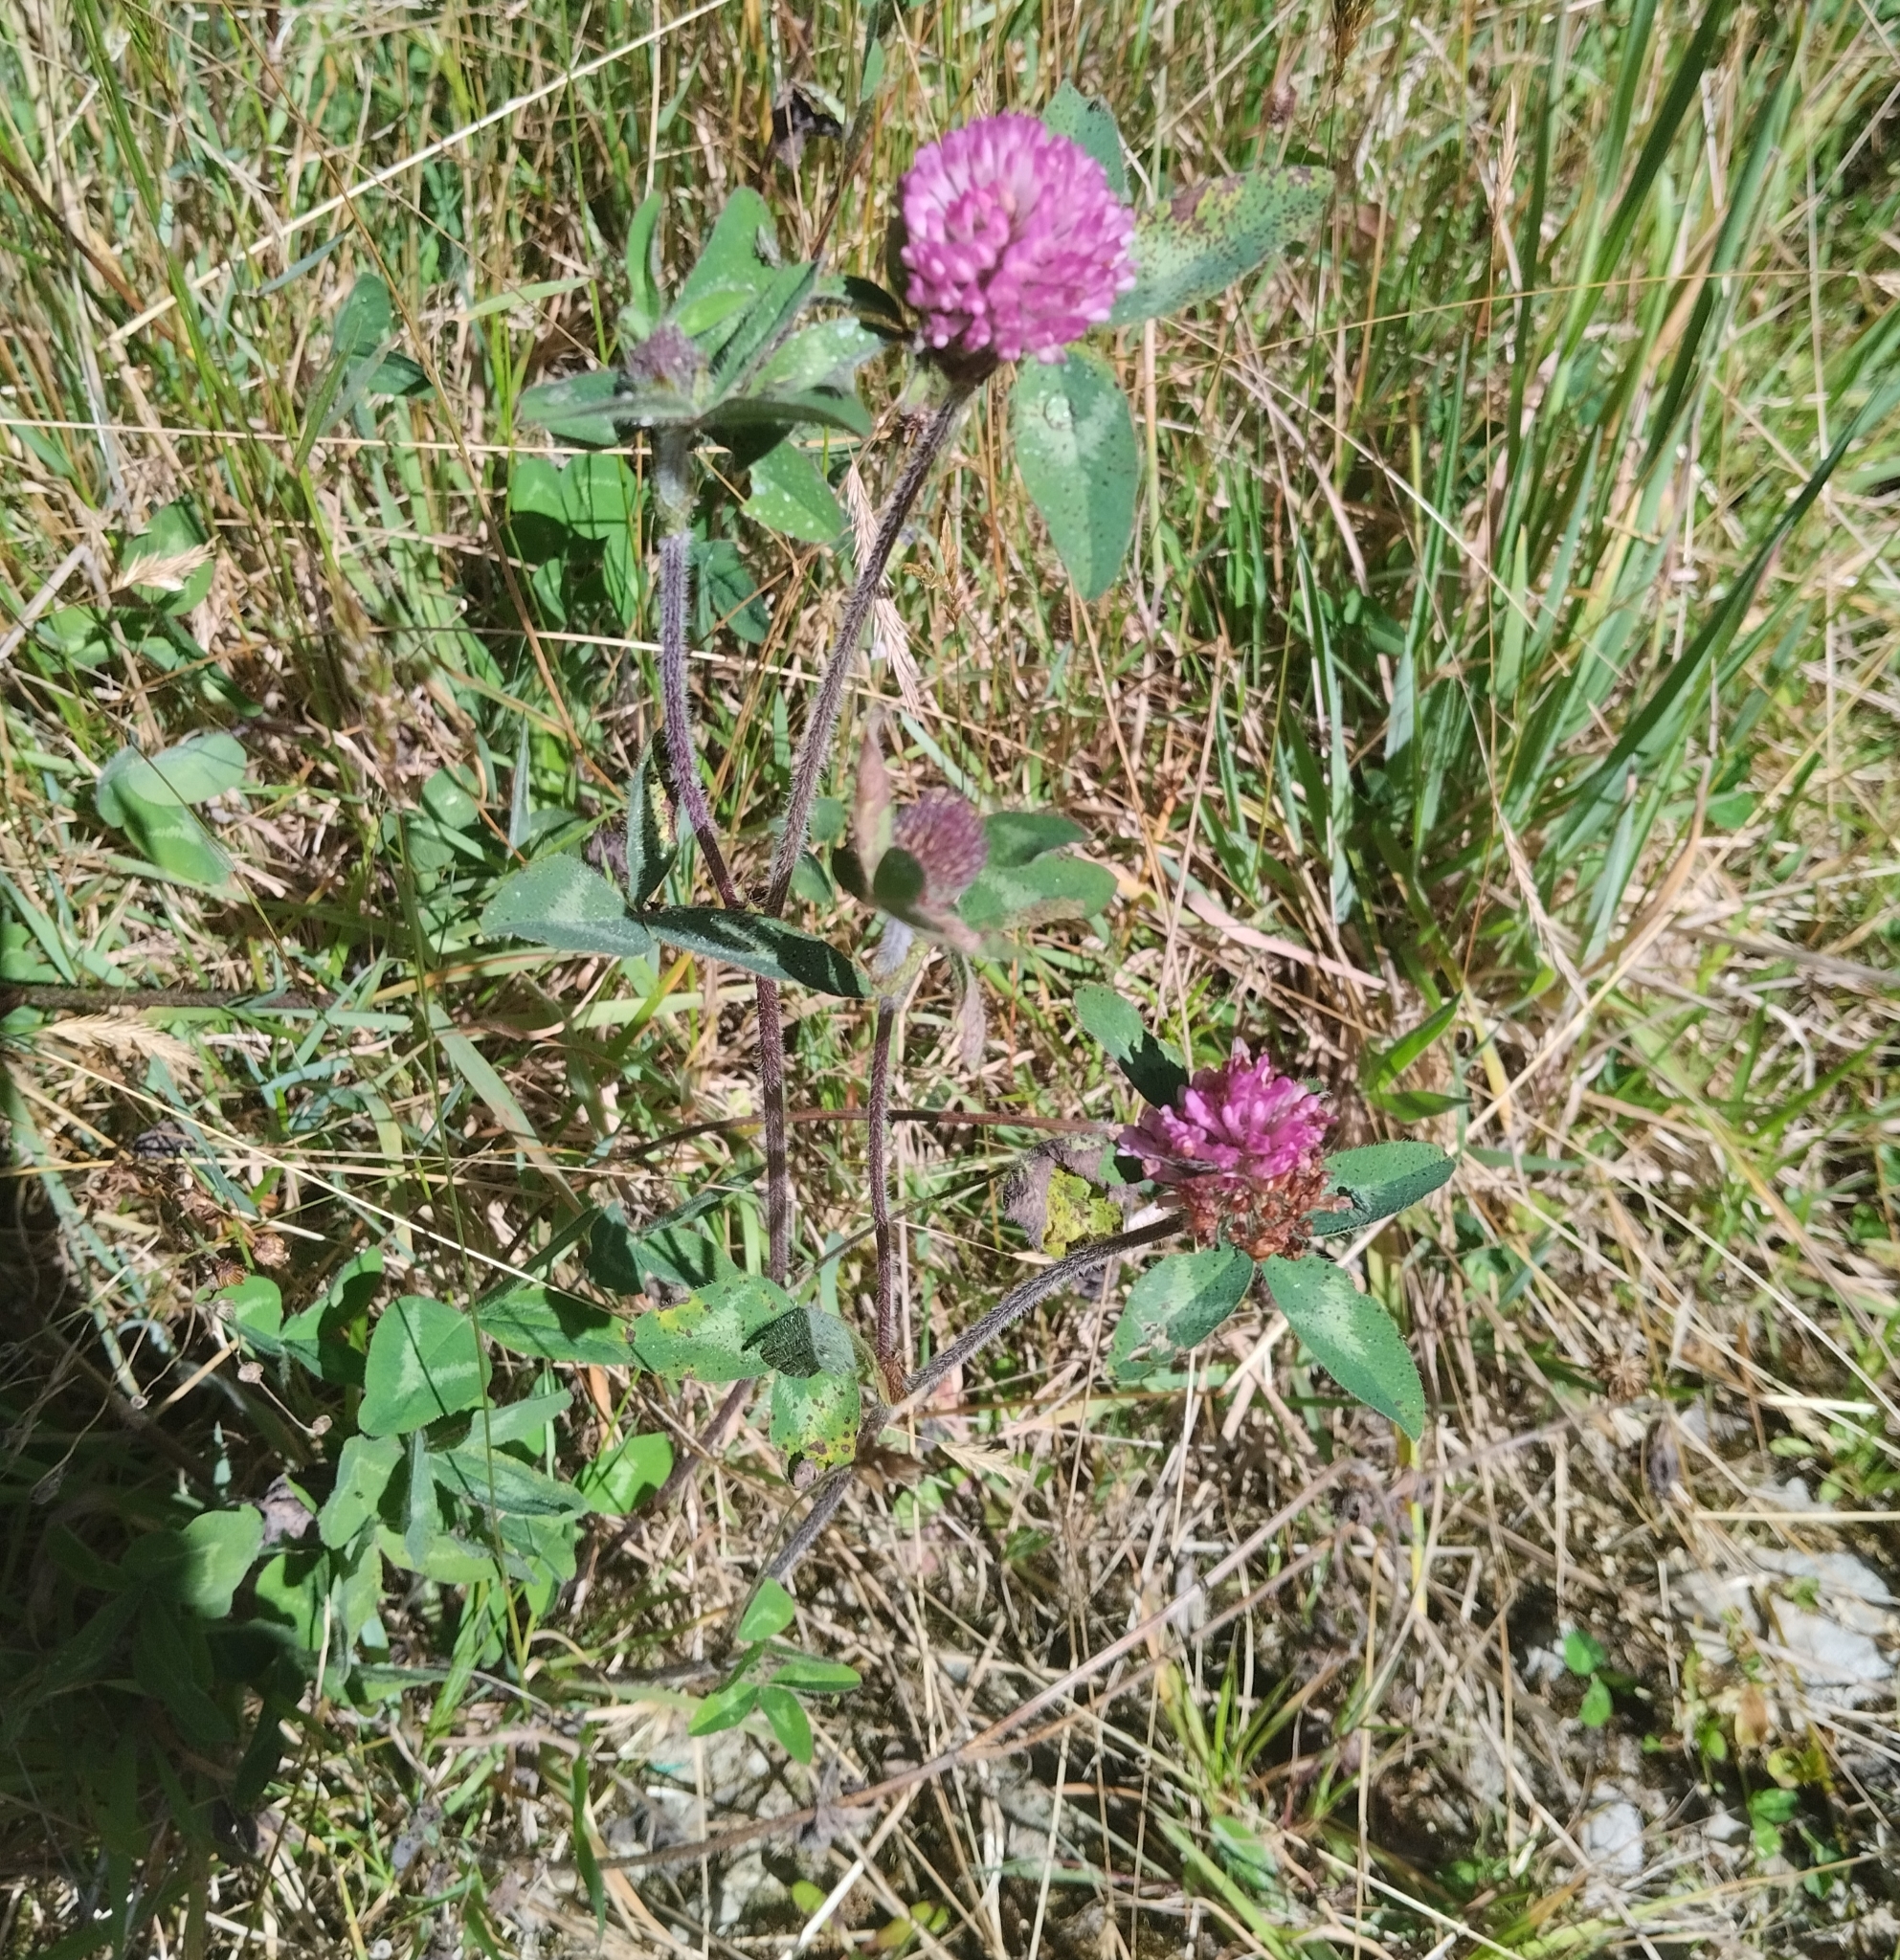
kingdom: Plantae
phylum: Tracheophyta
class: Magnoliopsida
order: Fabales
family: Fabaceae
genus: Trifolium
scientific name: Trifolium pratense
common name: Red clover
